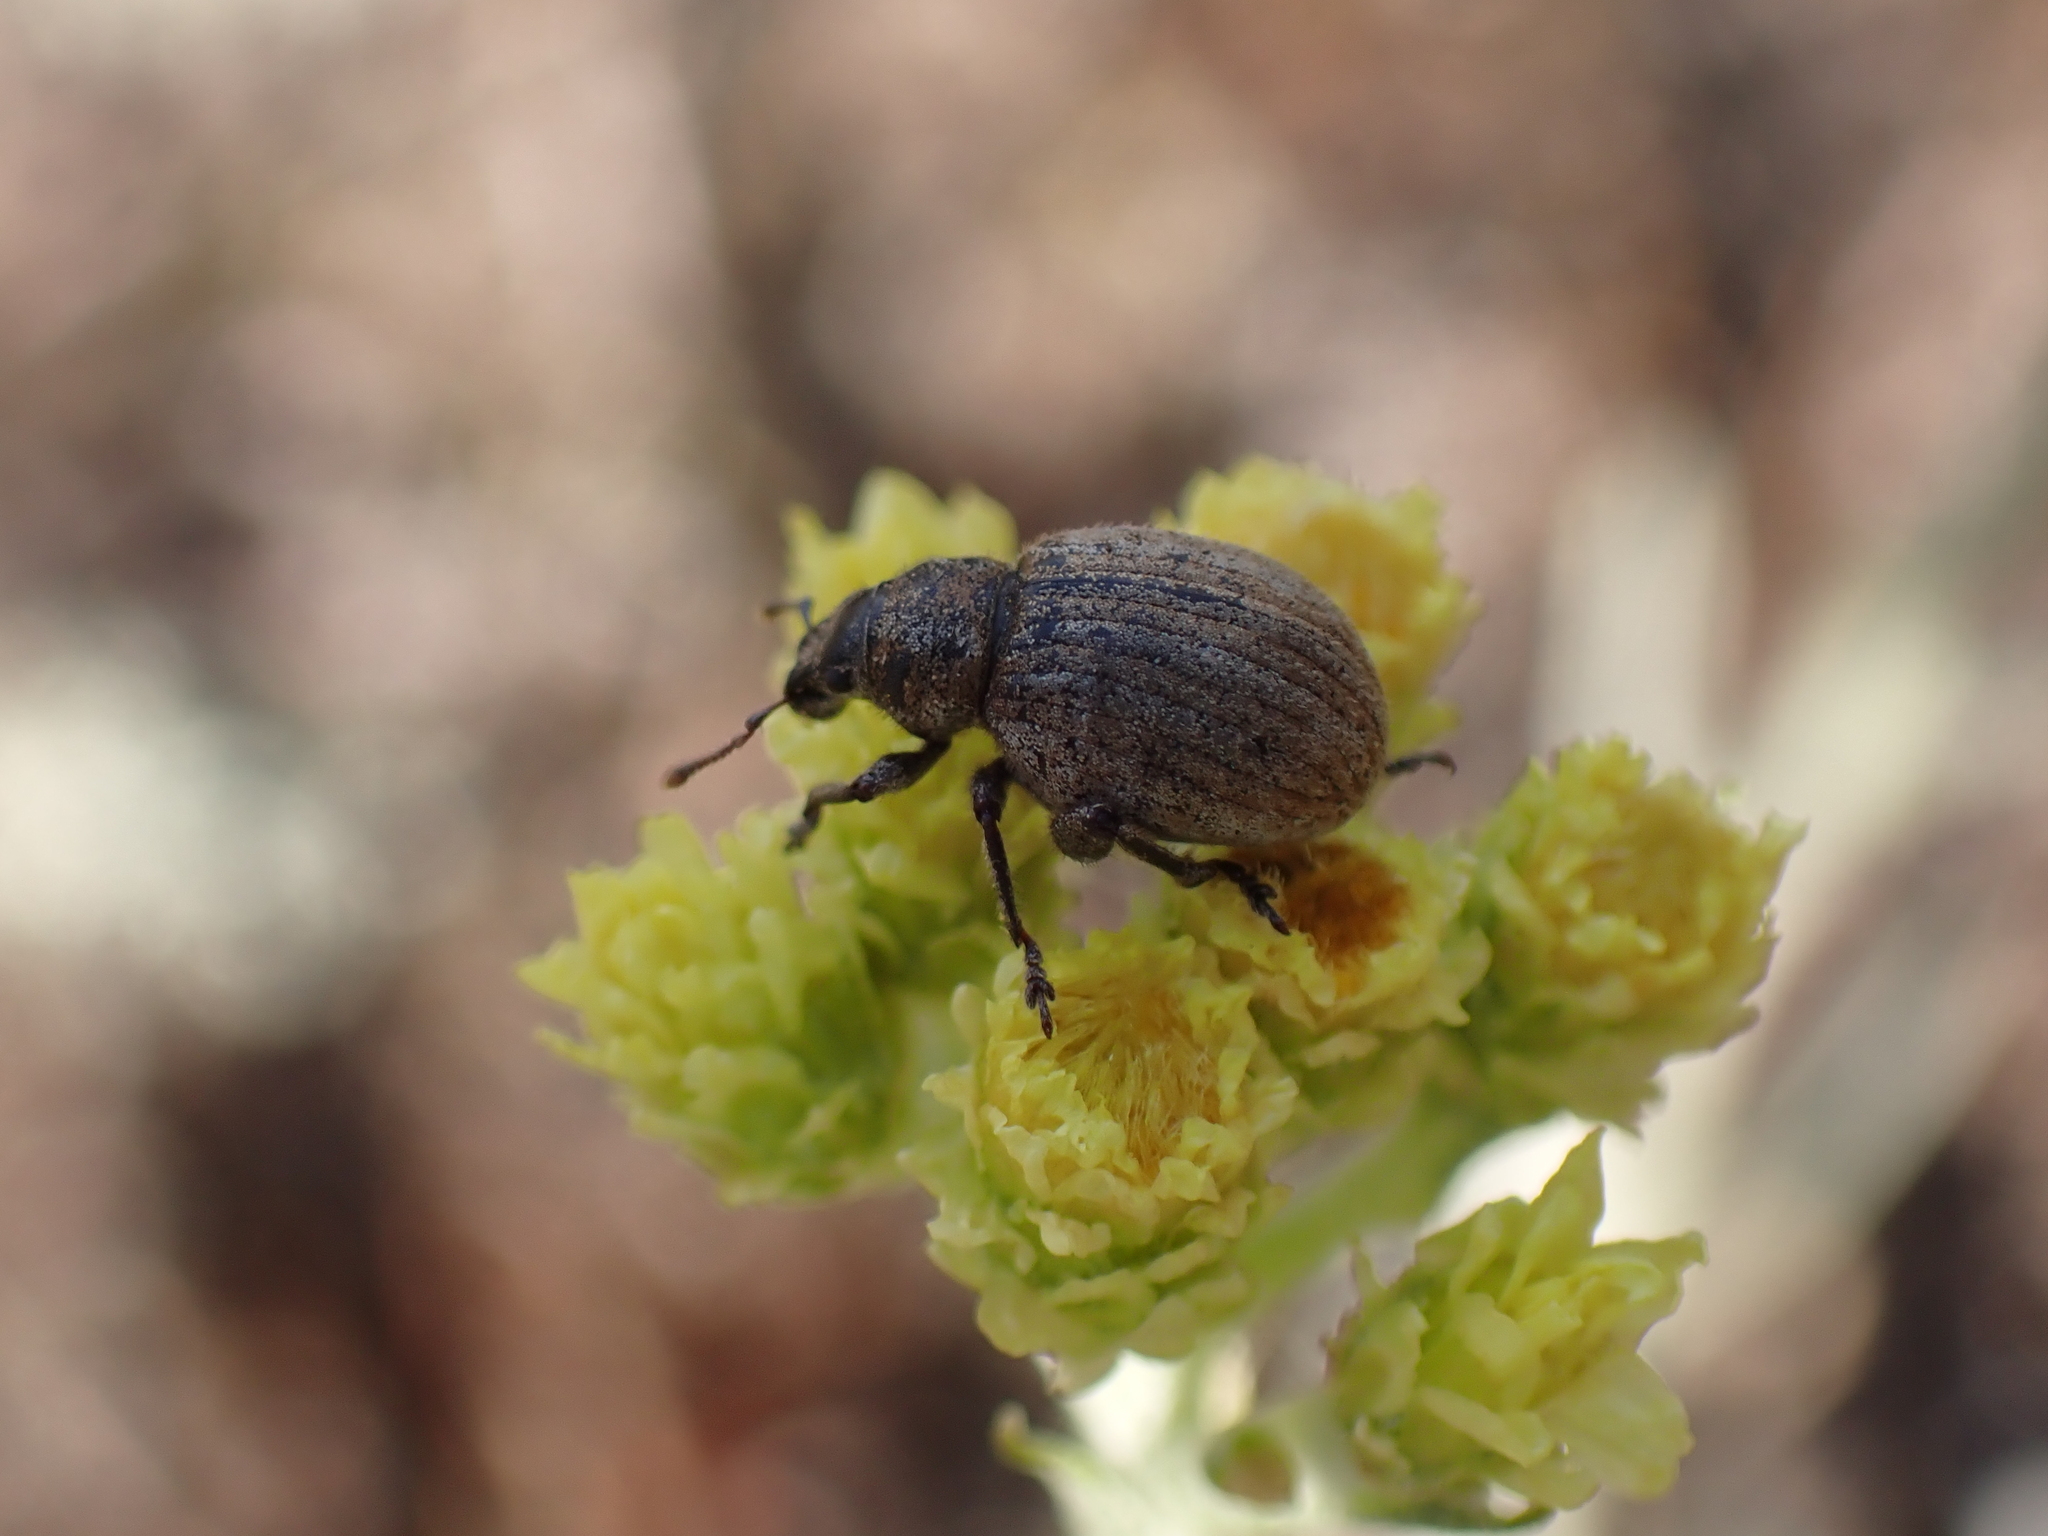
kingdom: Animalia
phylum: Arthropoda
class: Insecta
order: Coleoptera
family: Curculionidae
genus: Philopedon
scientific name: Philopedon plagiatum
